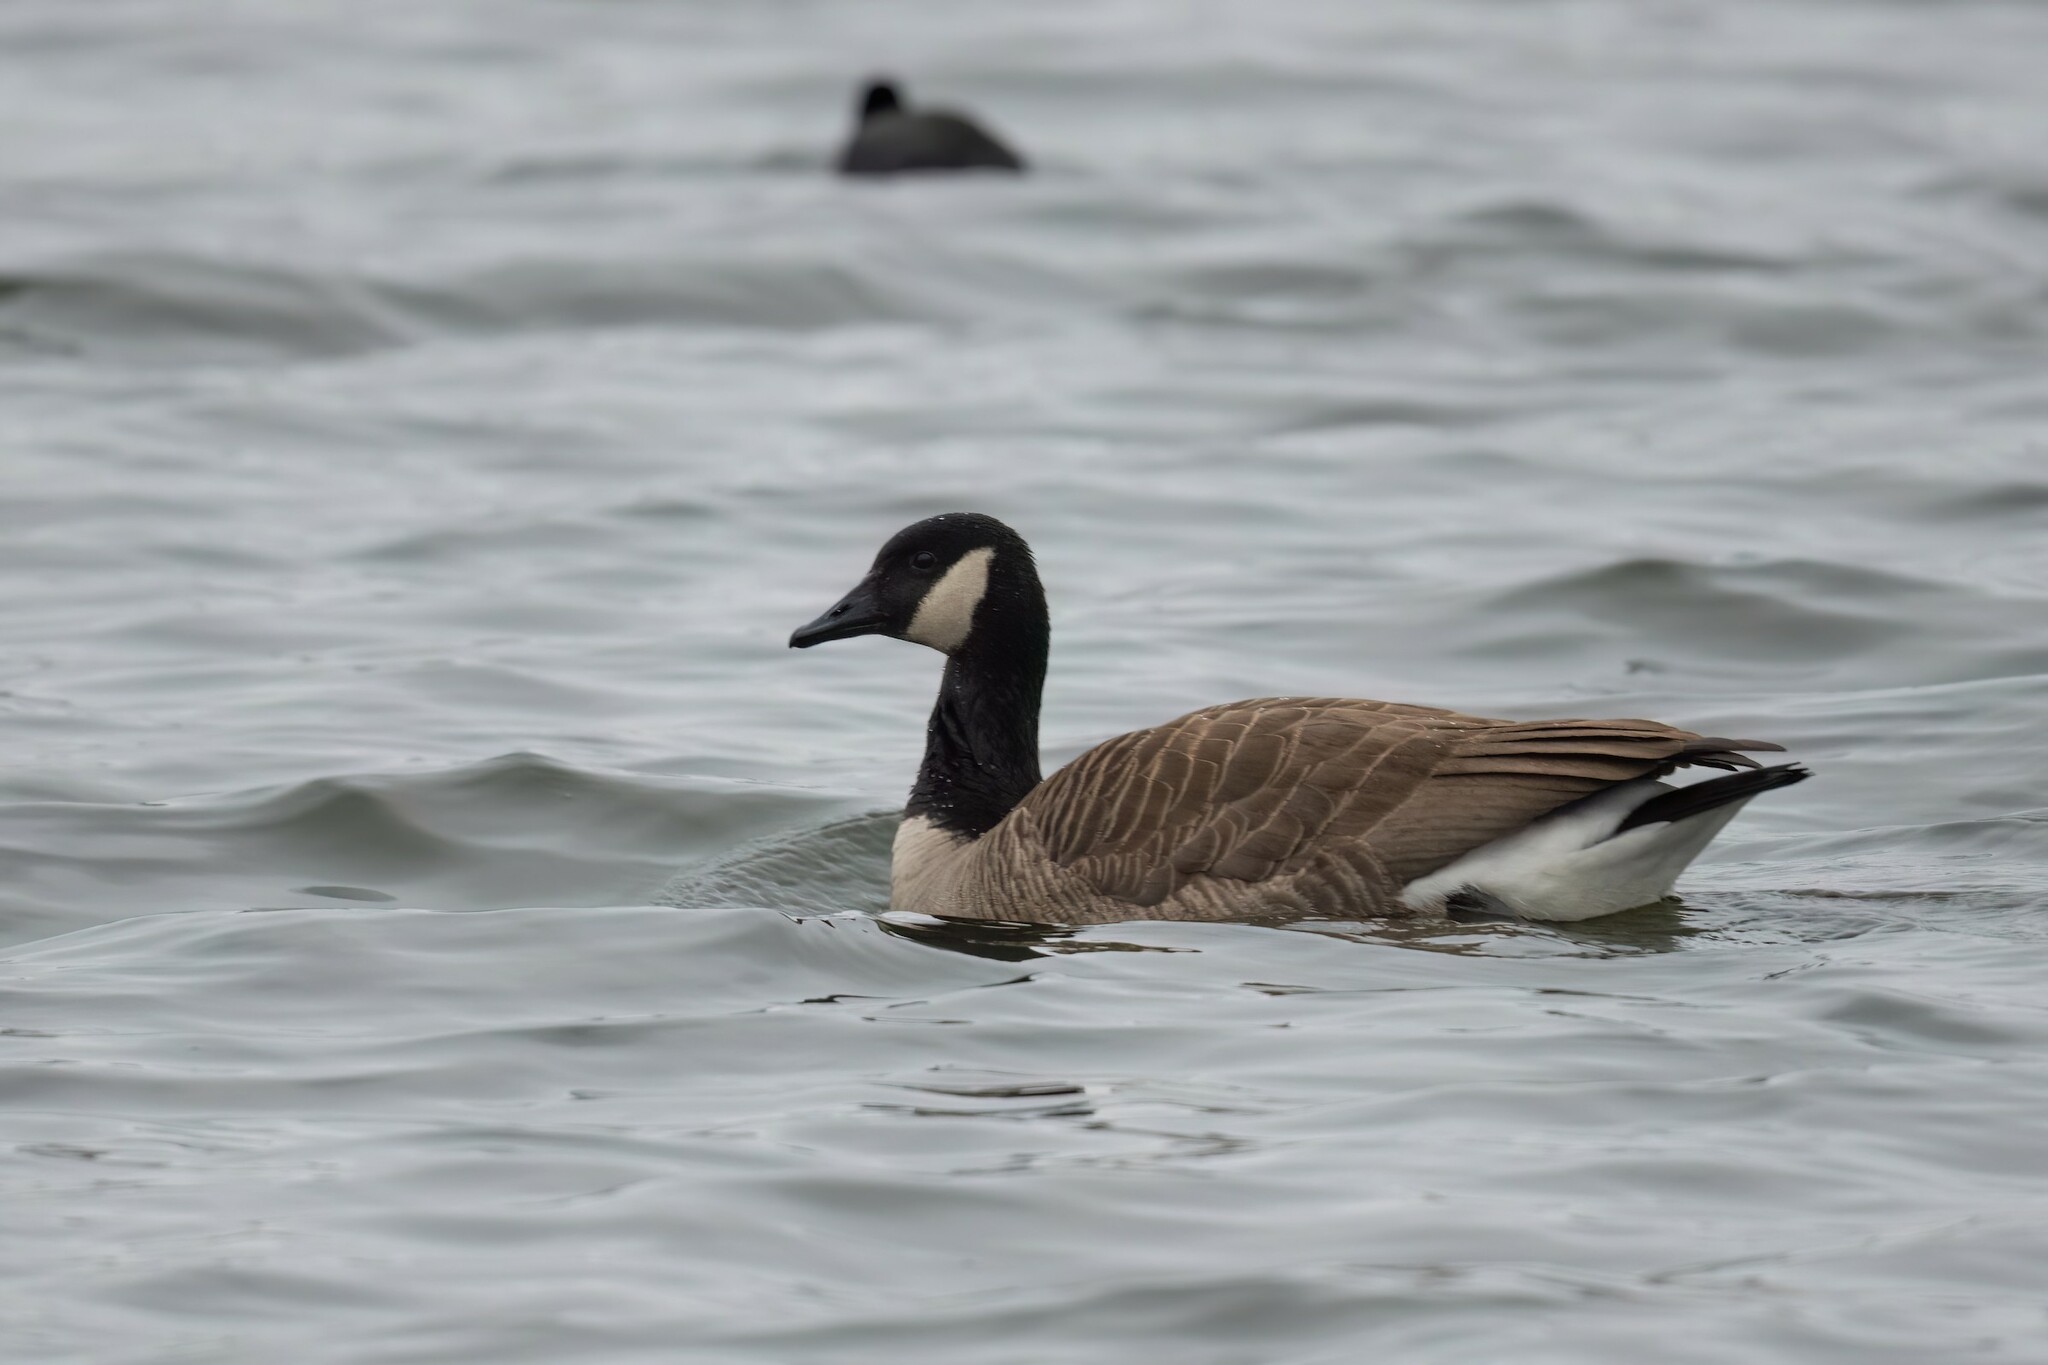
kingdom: Animalia
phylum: Chordata
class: Aves
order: Anseriformes
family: Anatidae
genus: Branta
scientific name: Branta canadensis
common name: Canada goose
